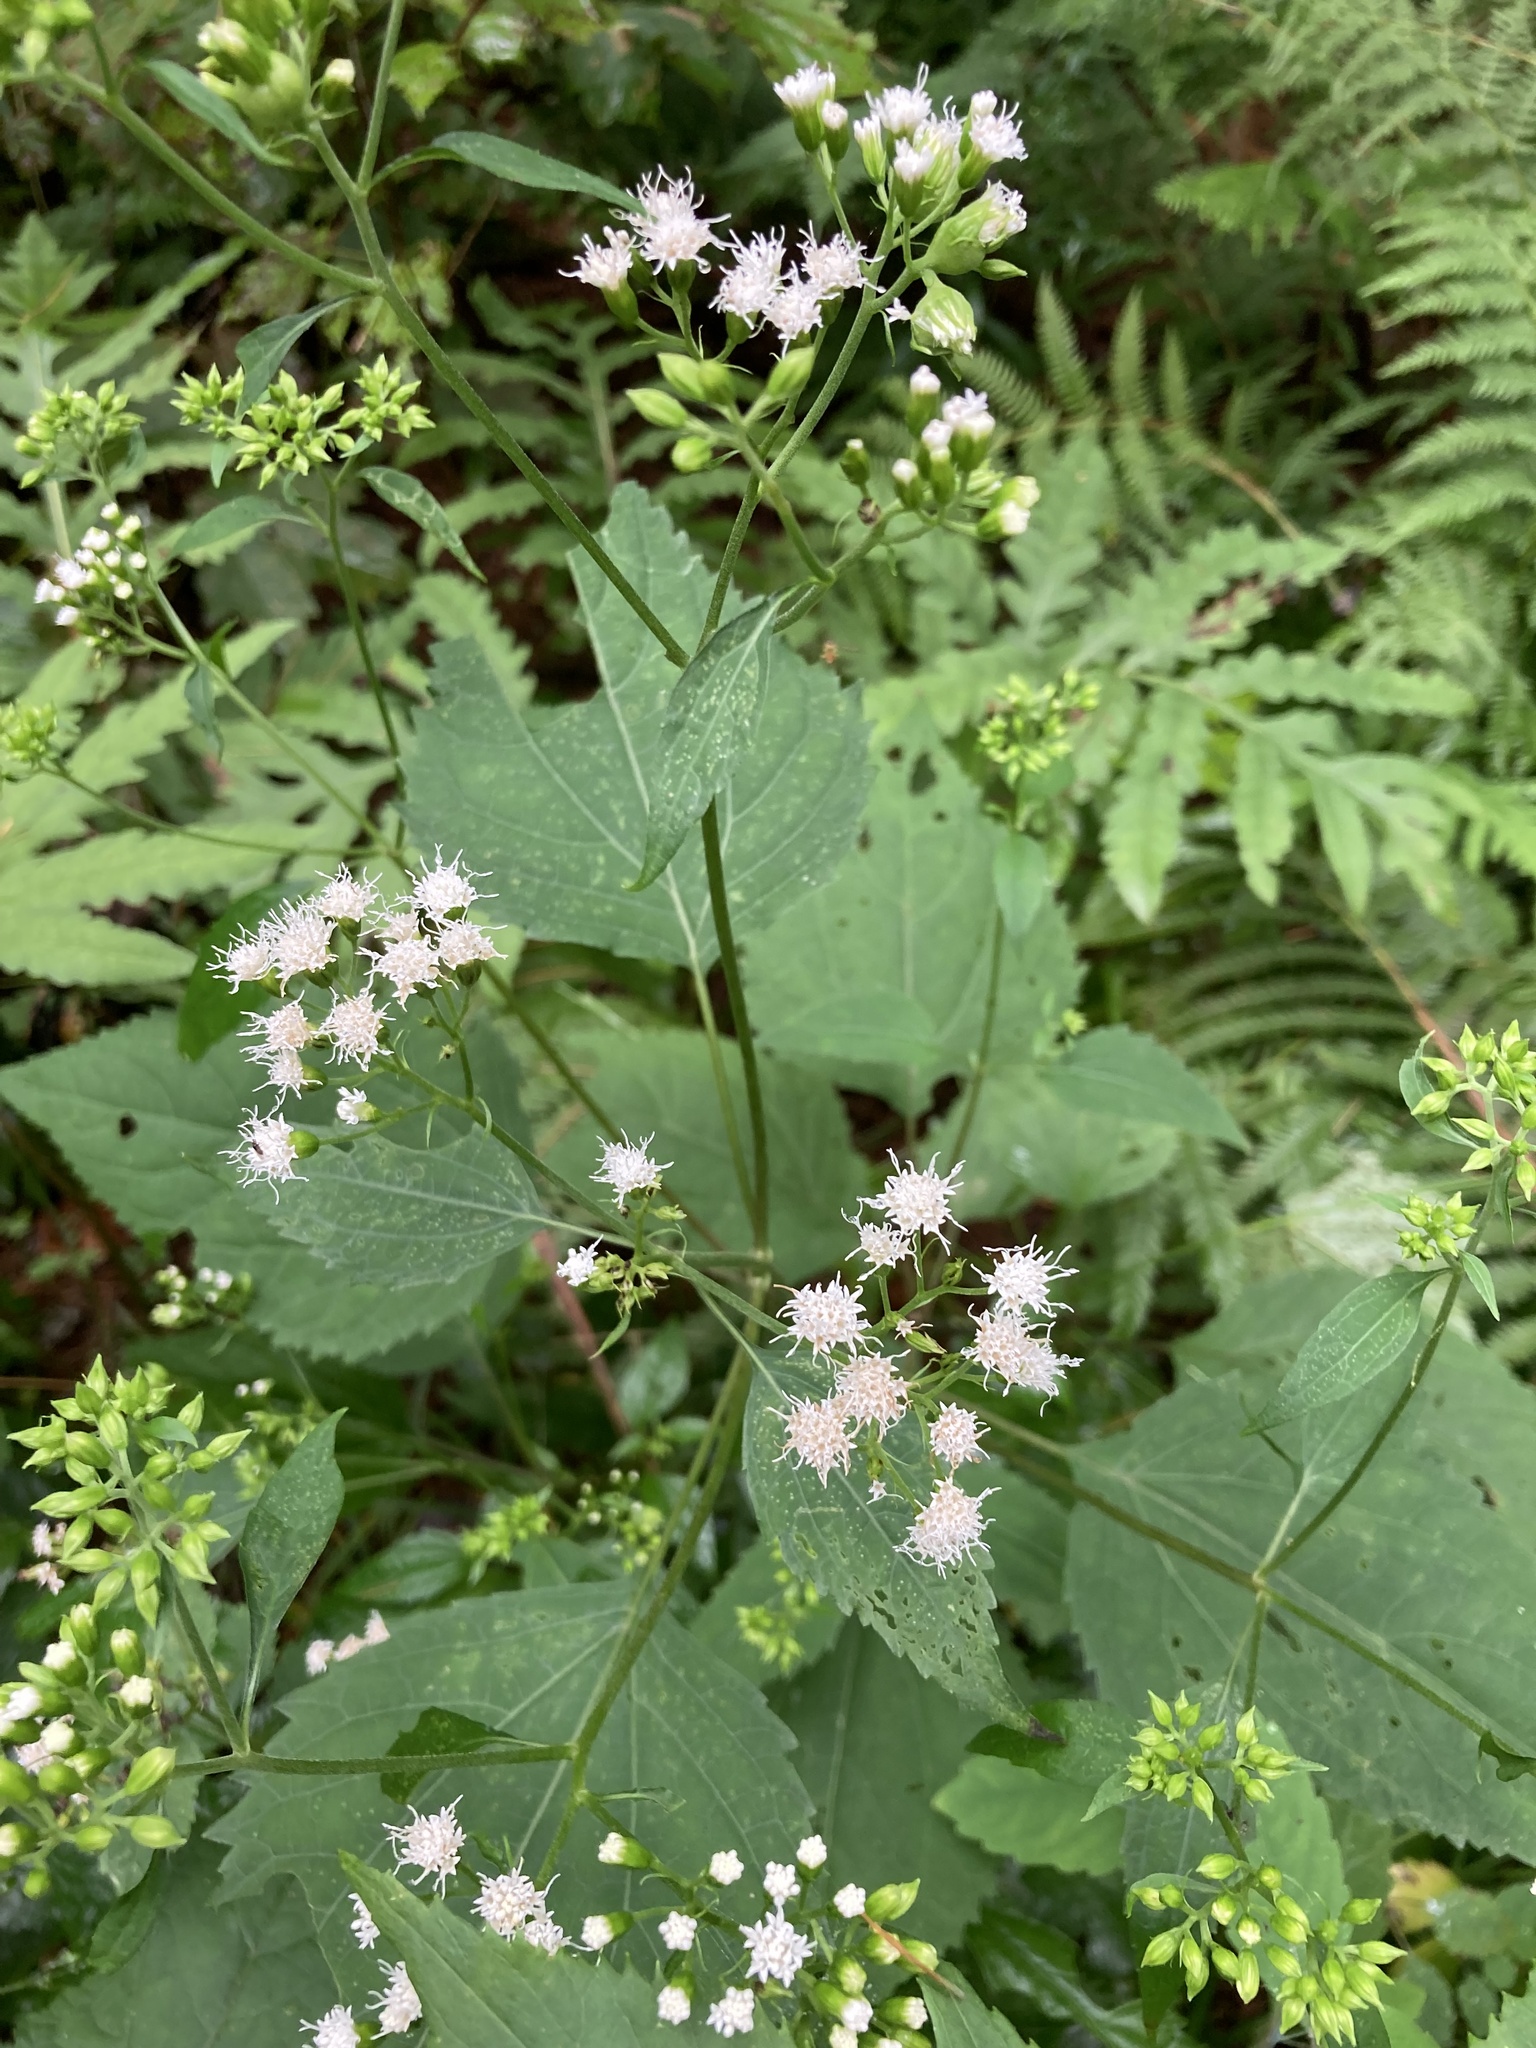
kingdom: Plantae
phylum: Tracheophyta
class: Magnoliopsida
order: Asterales
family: Asteraceae
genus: Ageratina
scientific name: Ageratina altissima
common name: White snakeroot
